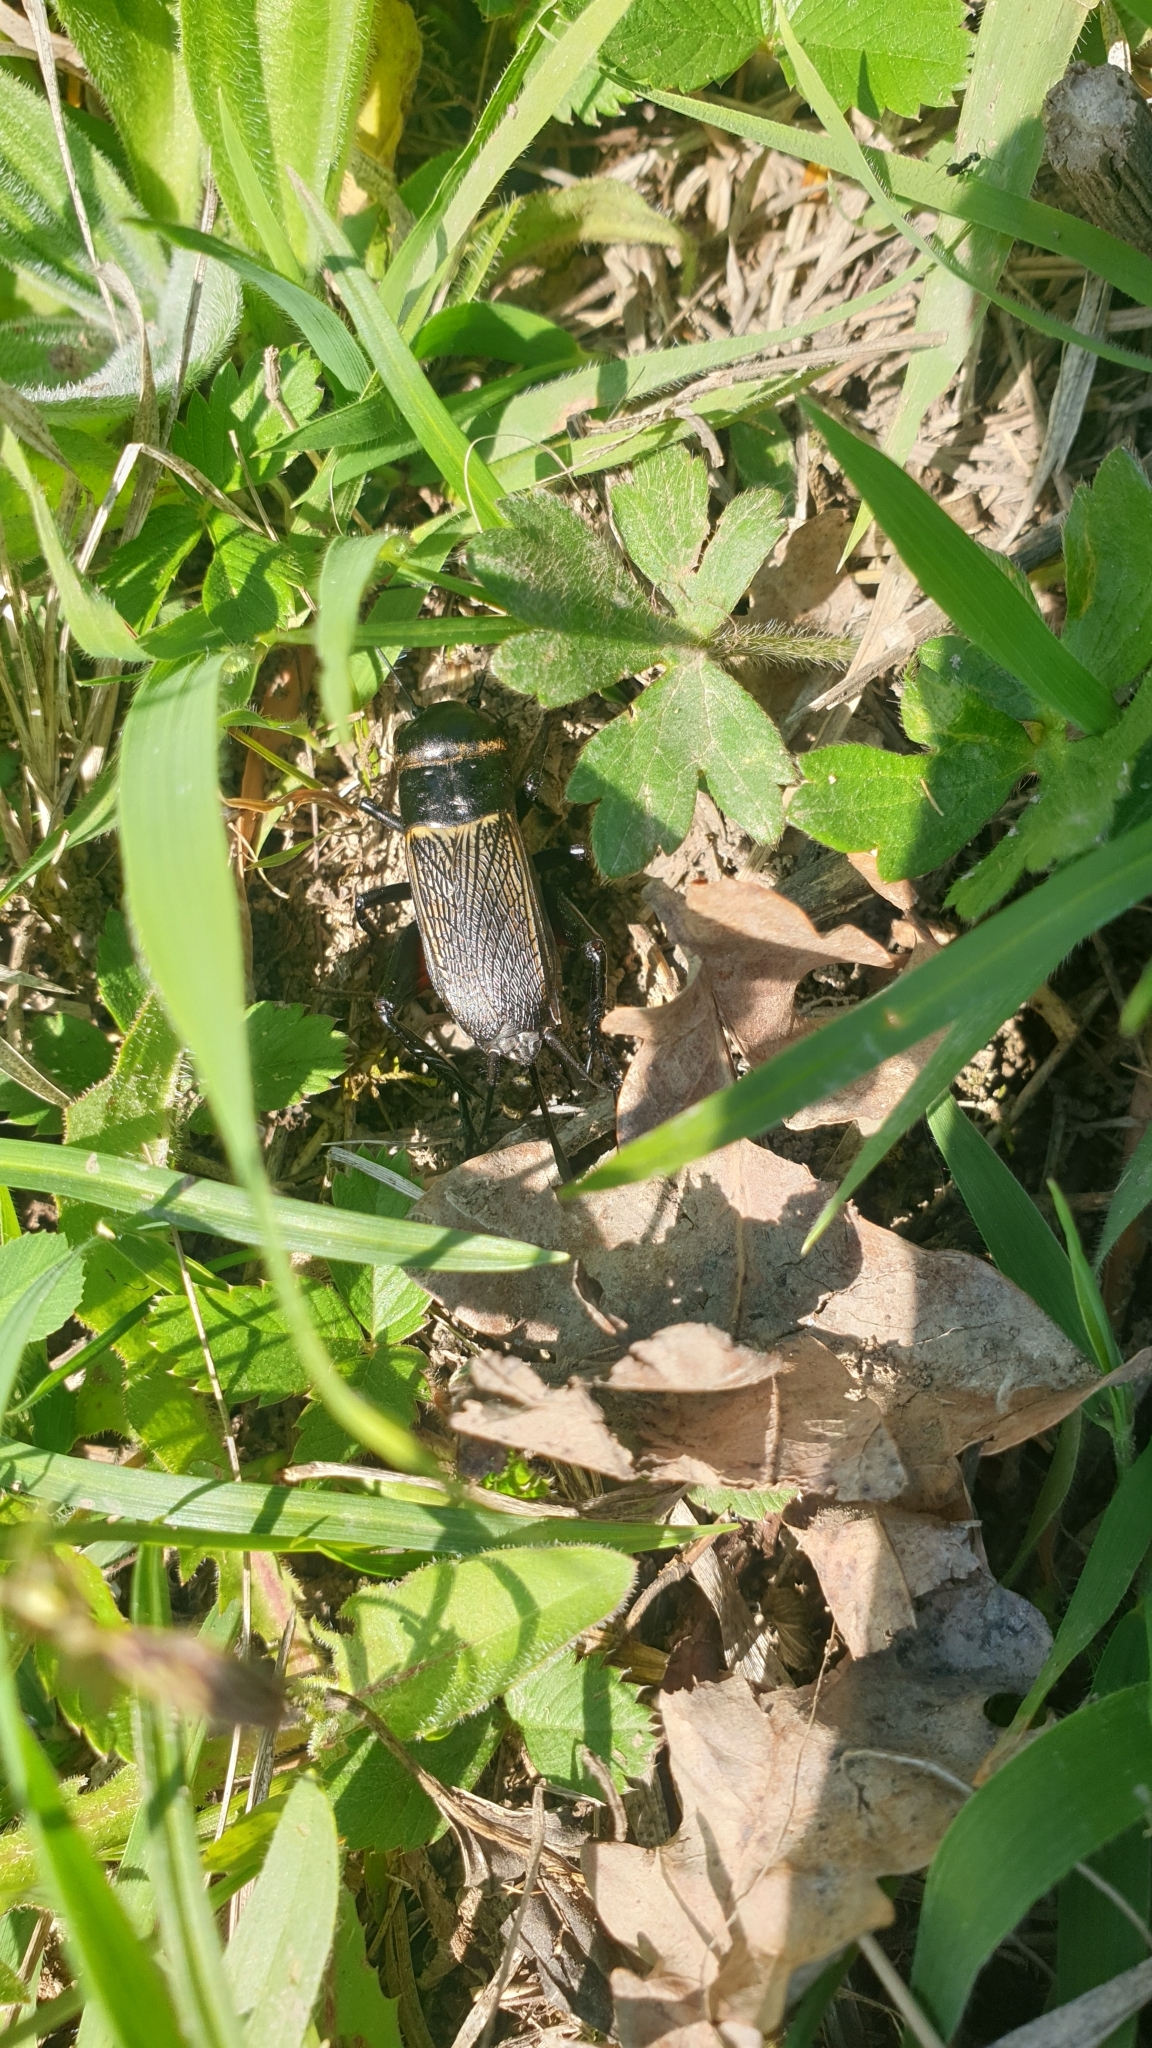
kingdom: Animalia
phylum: Arthropoda
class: Insecta
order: Orthoptera
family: Gryllidae
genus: Gryllus
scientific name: Gryllus campestris
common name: Field cricket
